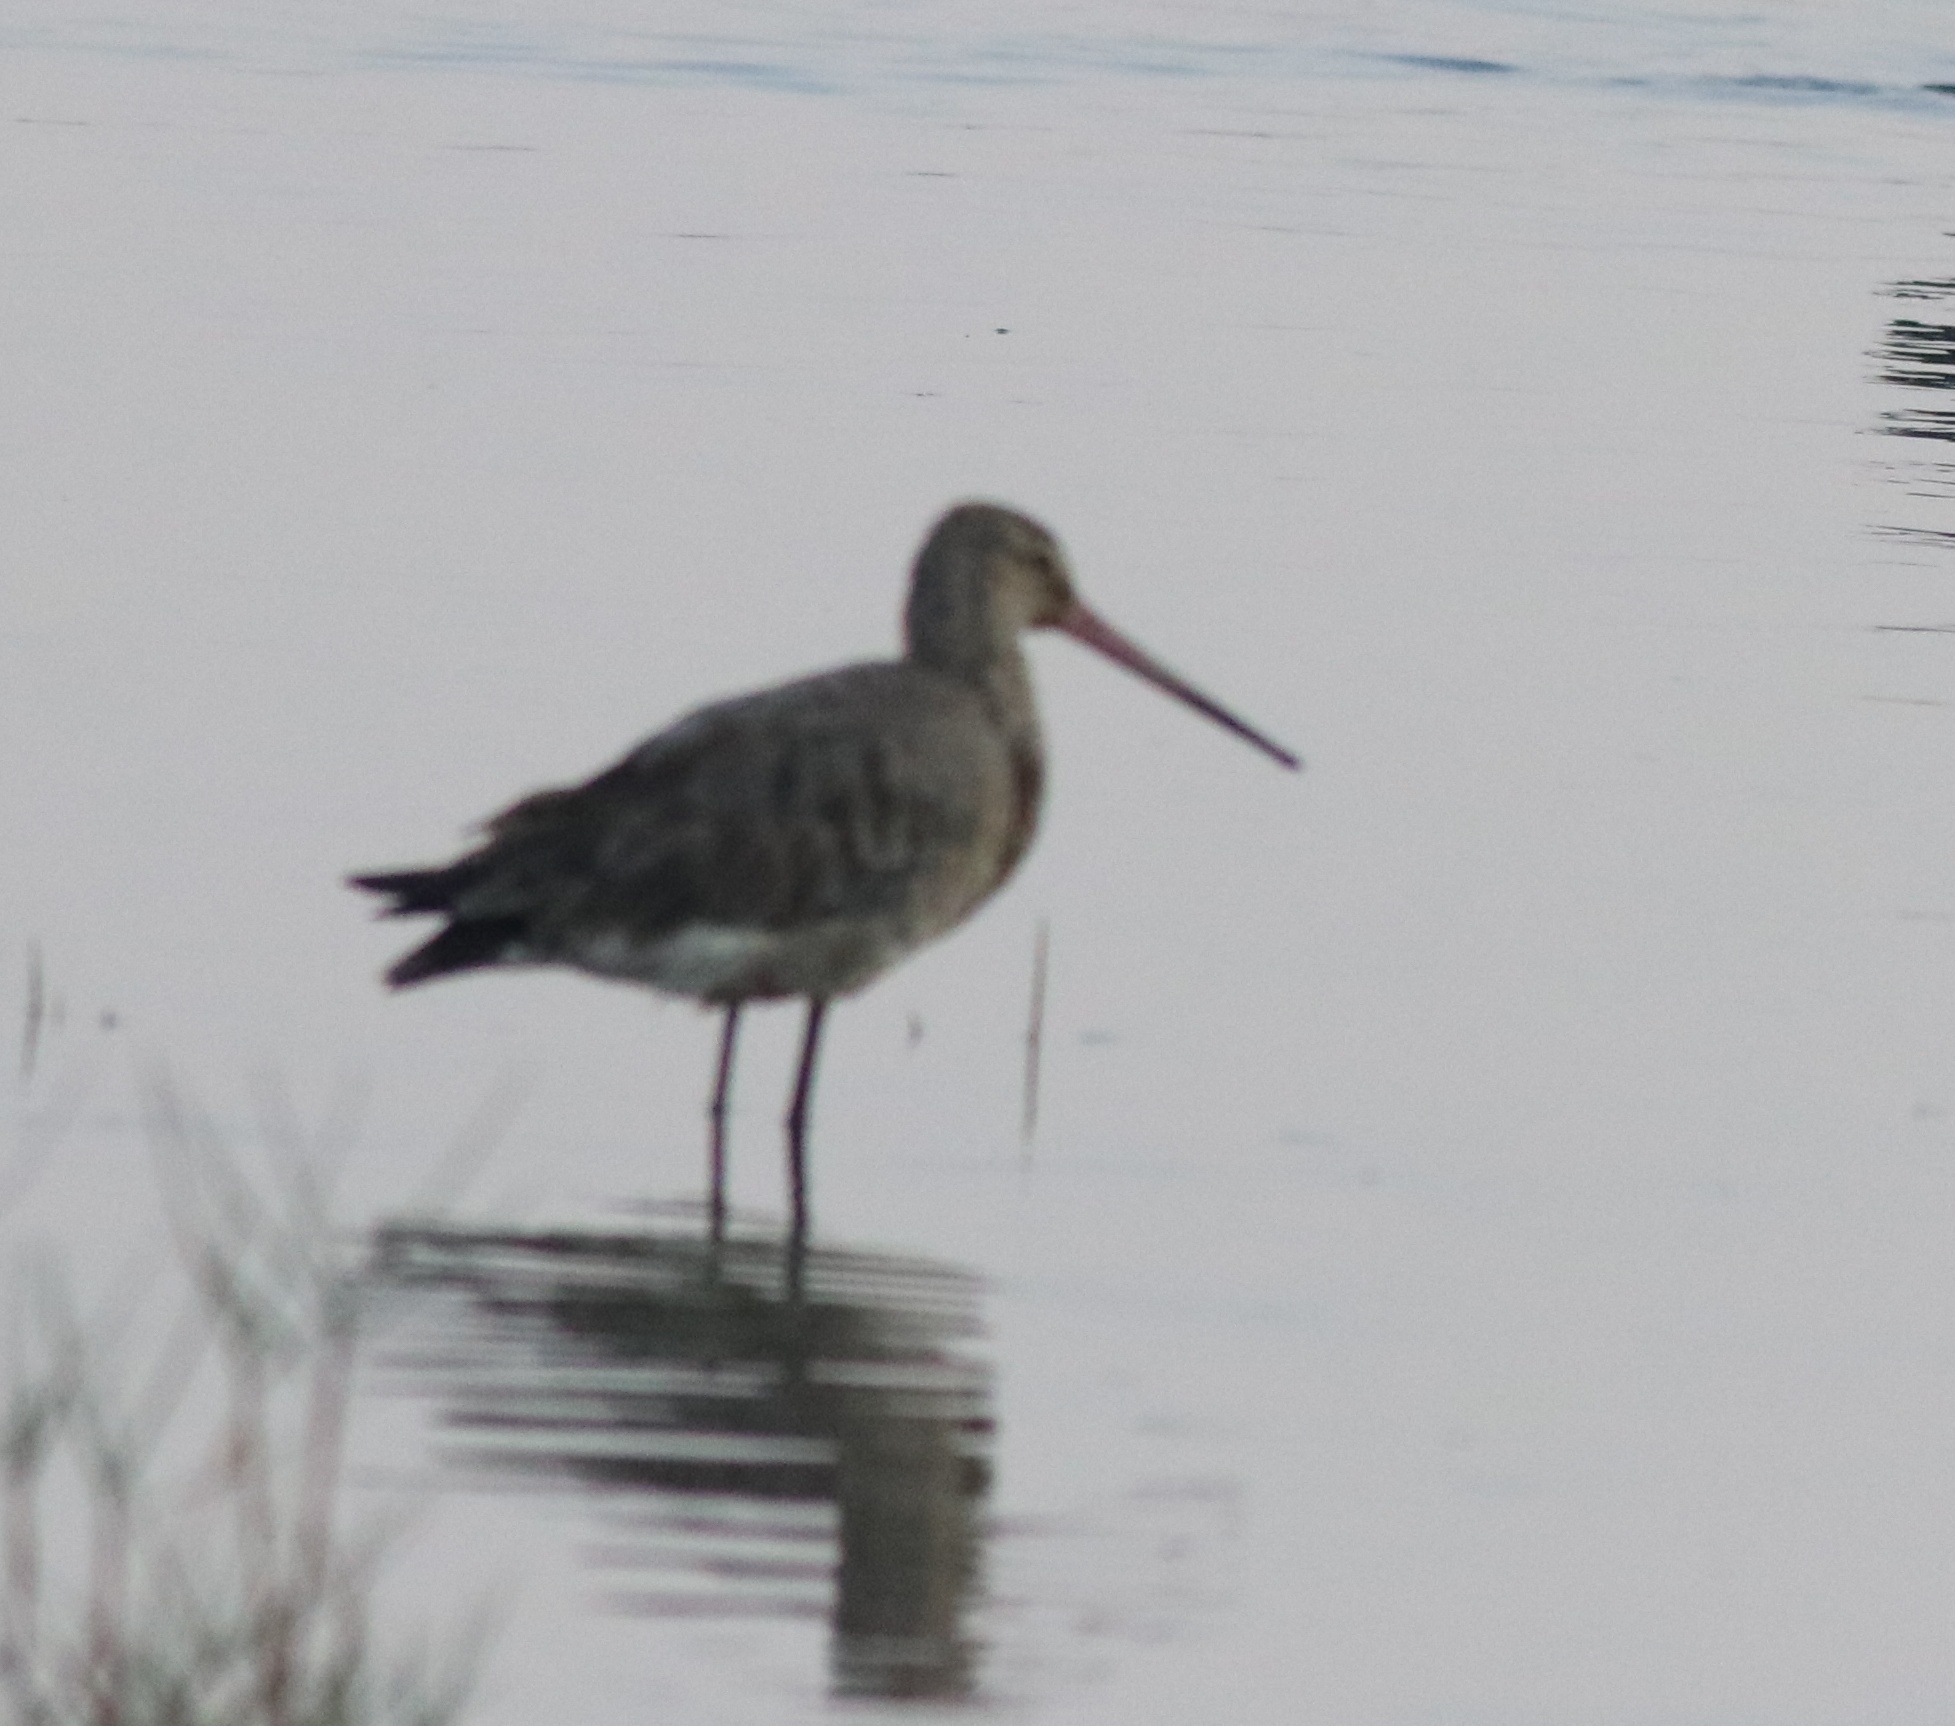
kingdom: Animalia
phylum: Chordata
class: Aves
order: Charadriiformes
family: Scolopacidae
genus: Limosa
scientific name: Limosa limosa
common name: Black-tailed godwit
